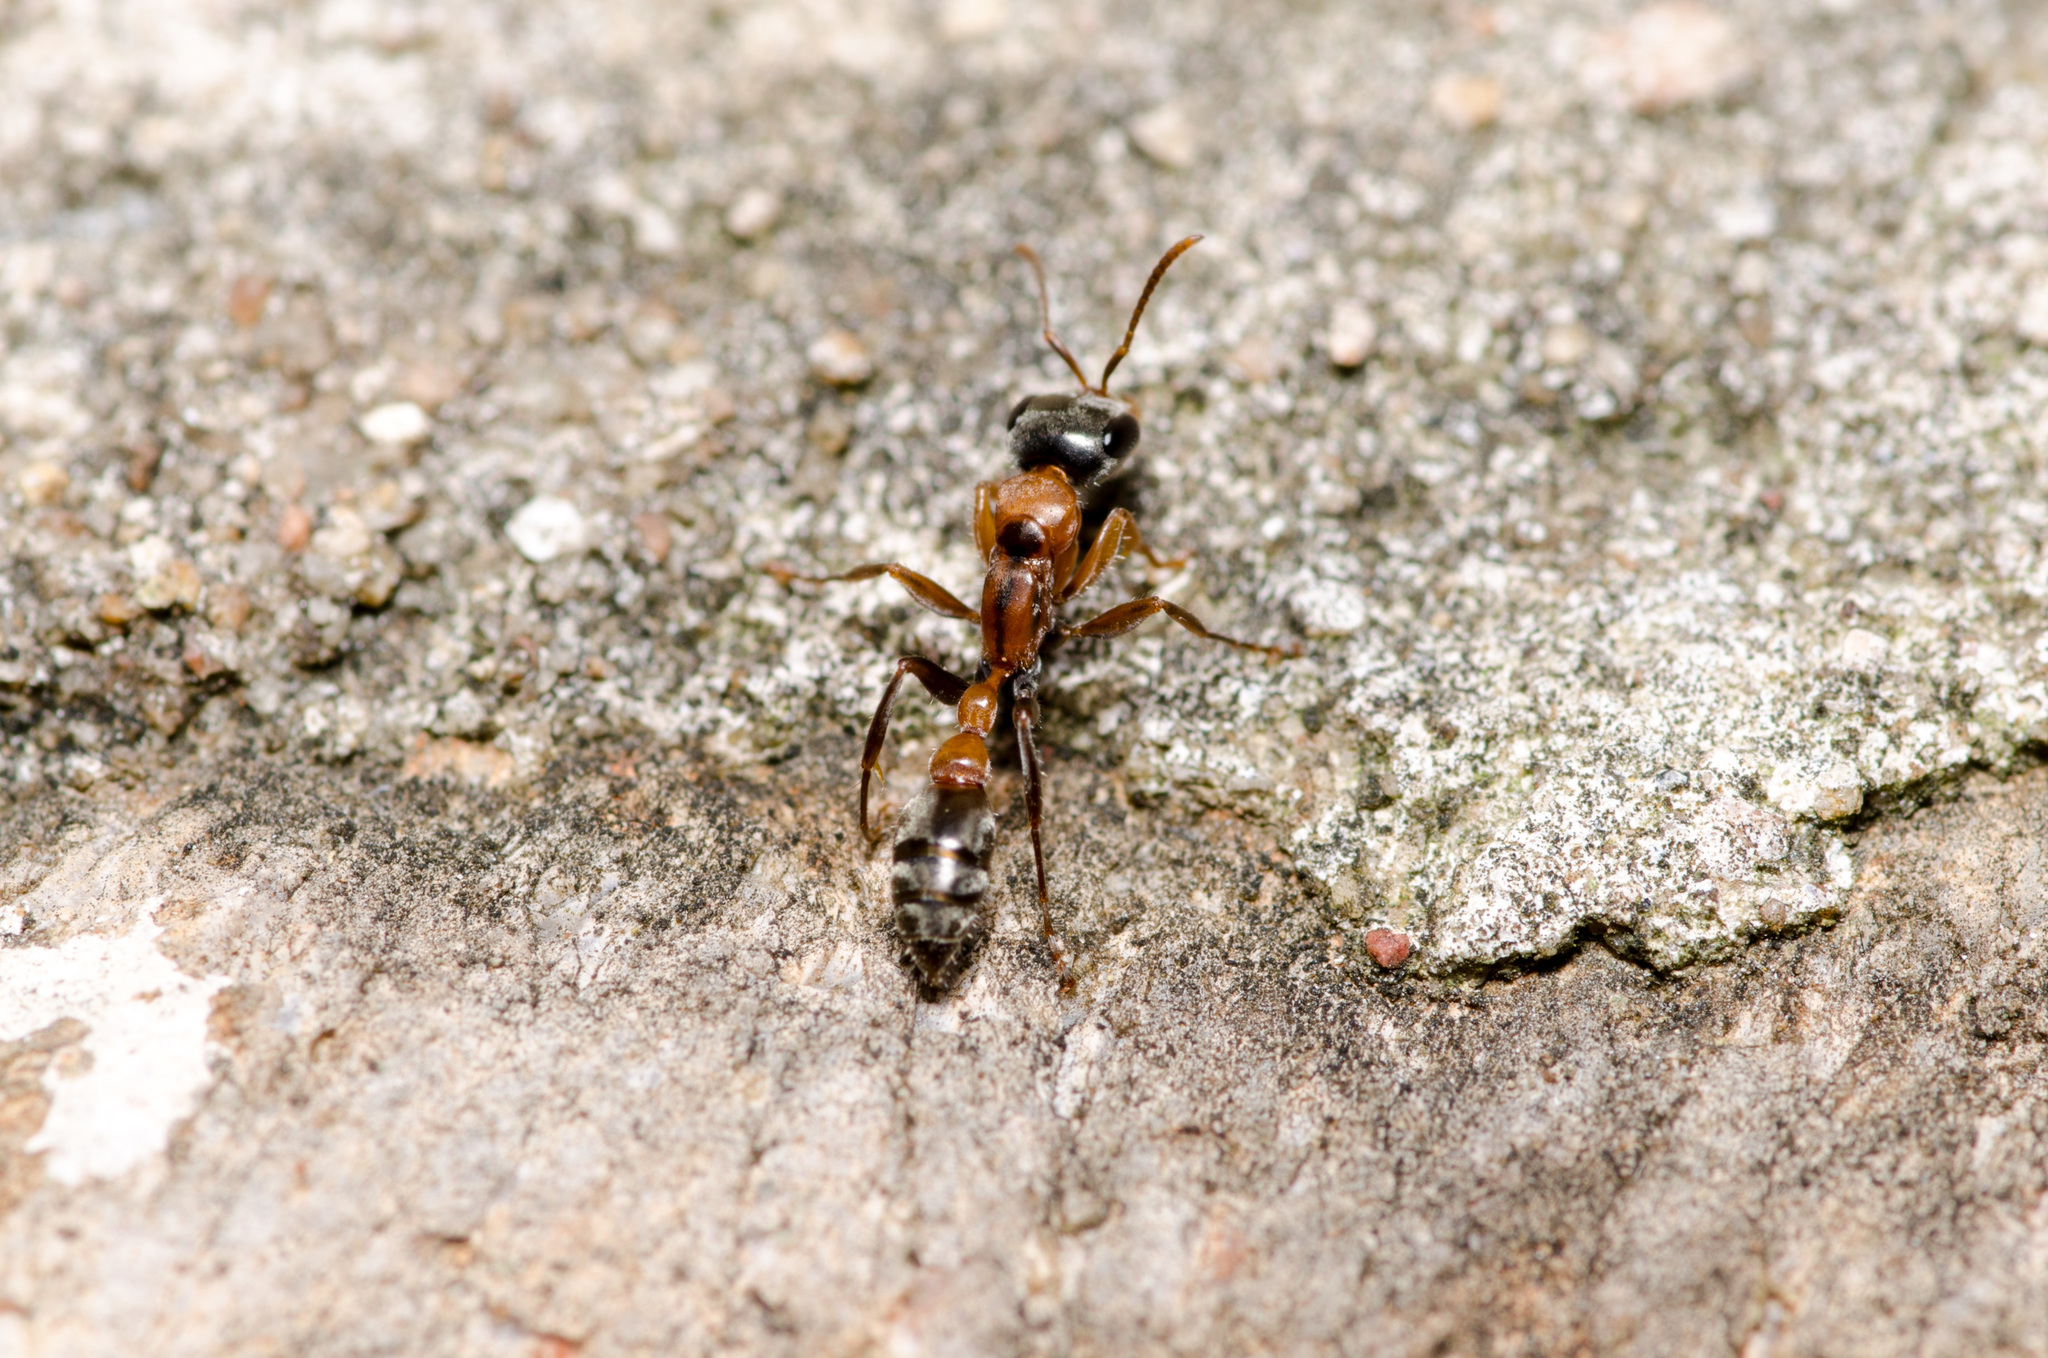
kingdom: Animalia
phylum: Arthropoda
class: Insecta
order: Hymenoptera
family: Formicidae
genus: Pseudomyrmex
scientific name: Pseudomyrmex gracilis
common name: Graceful twig ant
